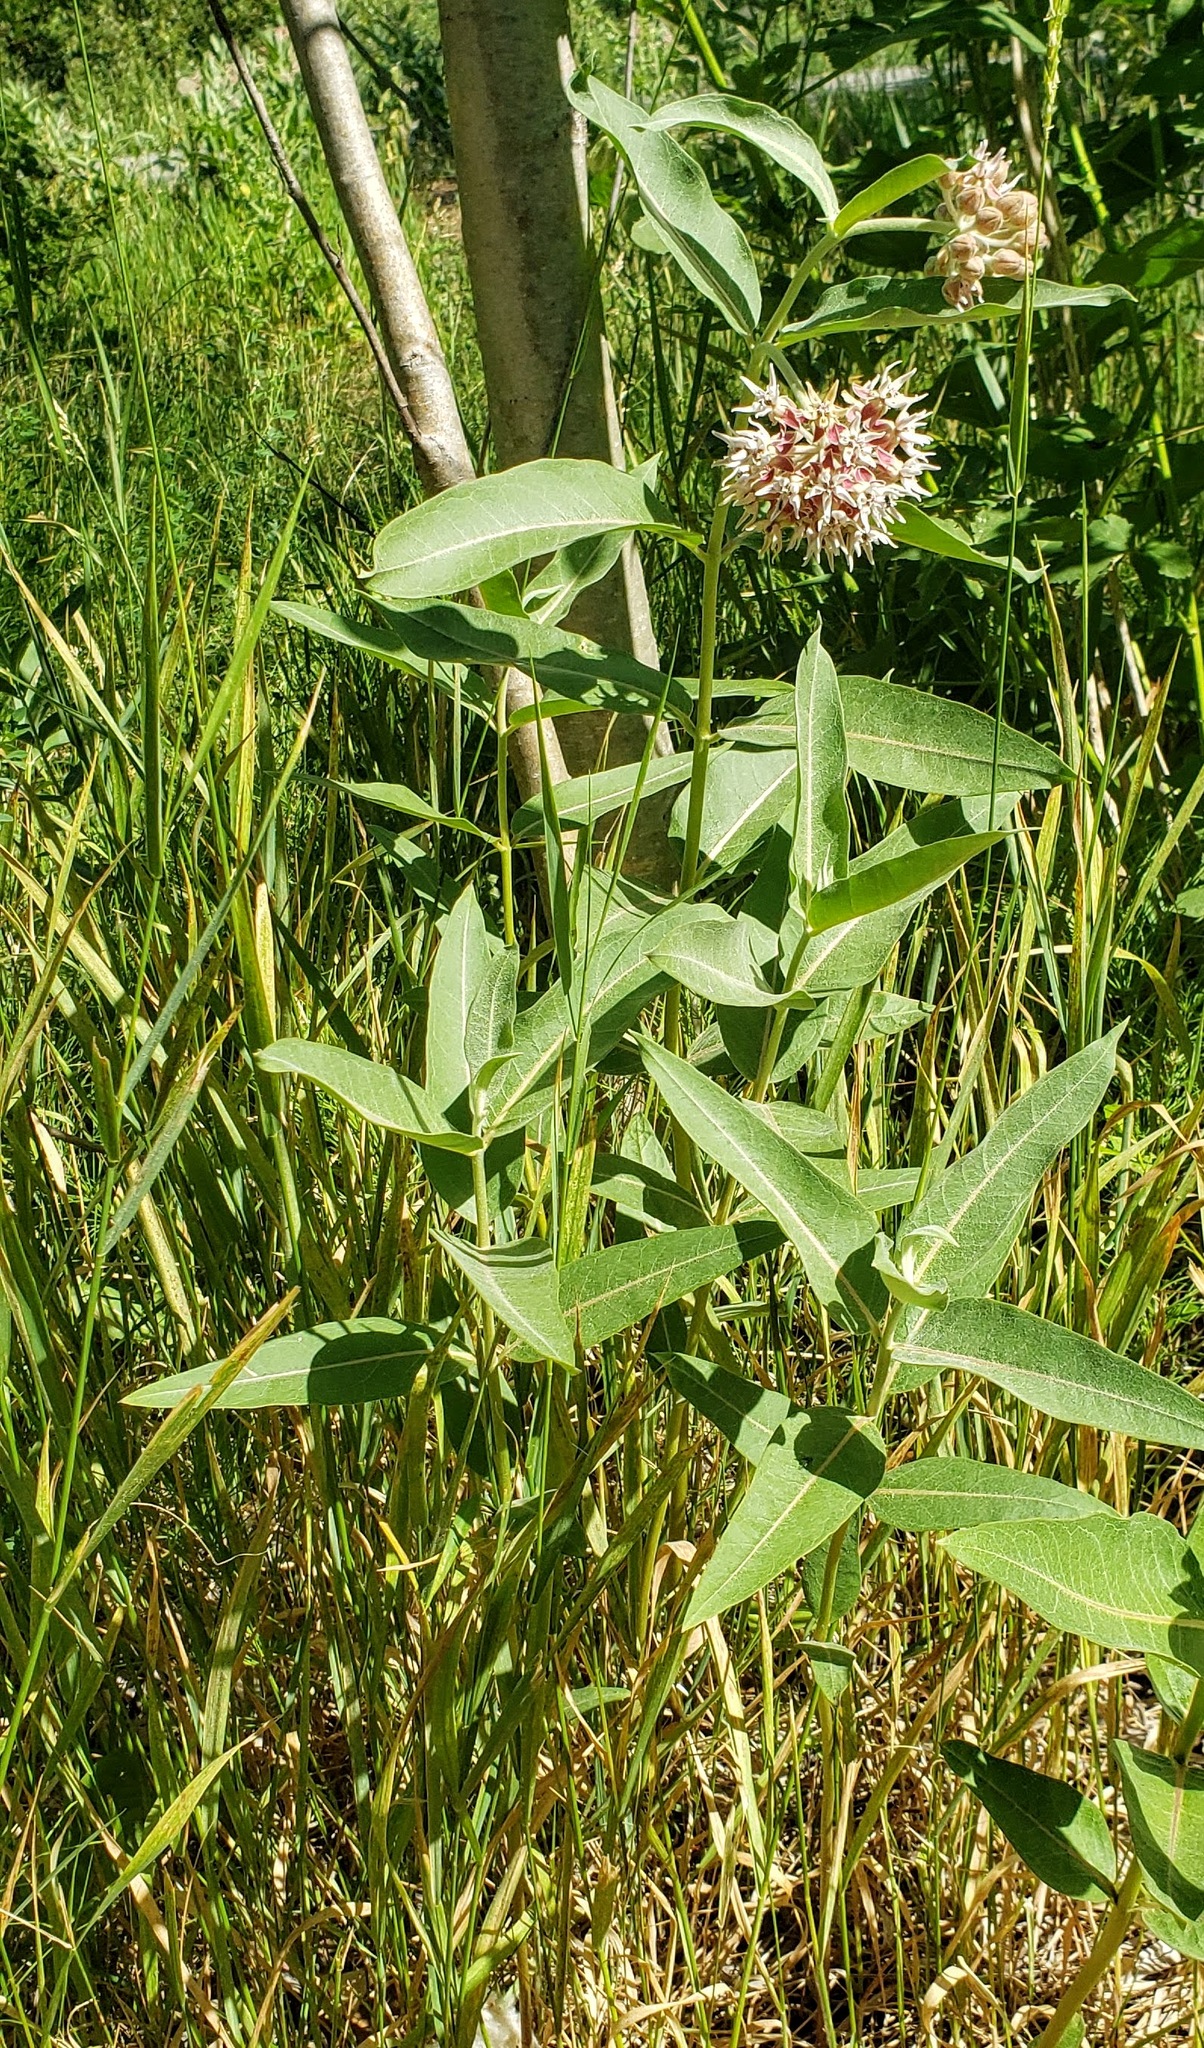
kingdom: Plantae
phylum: Tracheophyta
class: Magnoliopsida
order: Gentianales
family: Apocynaceae
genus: Asclepias
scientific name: Asclepias speciosa
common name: Showy milkweed
